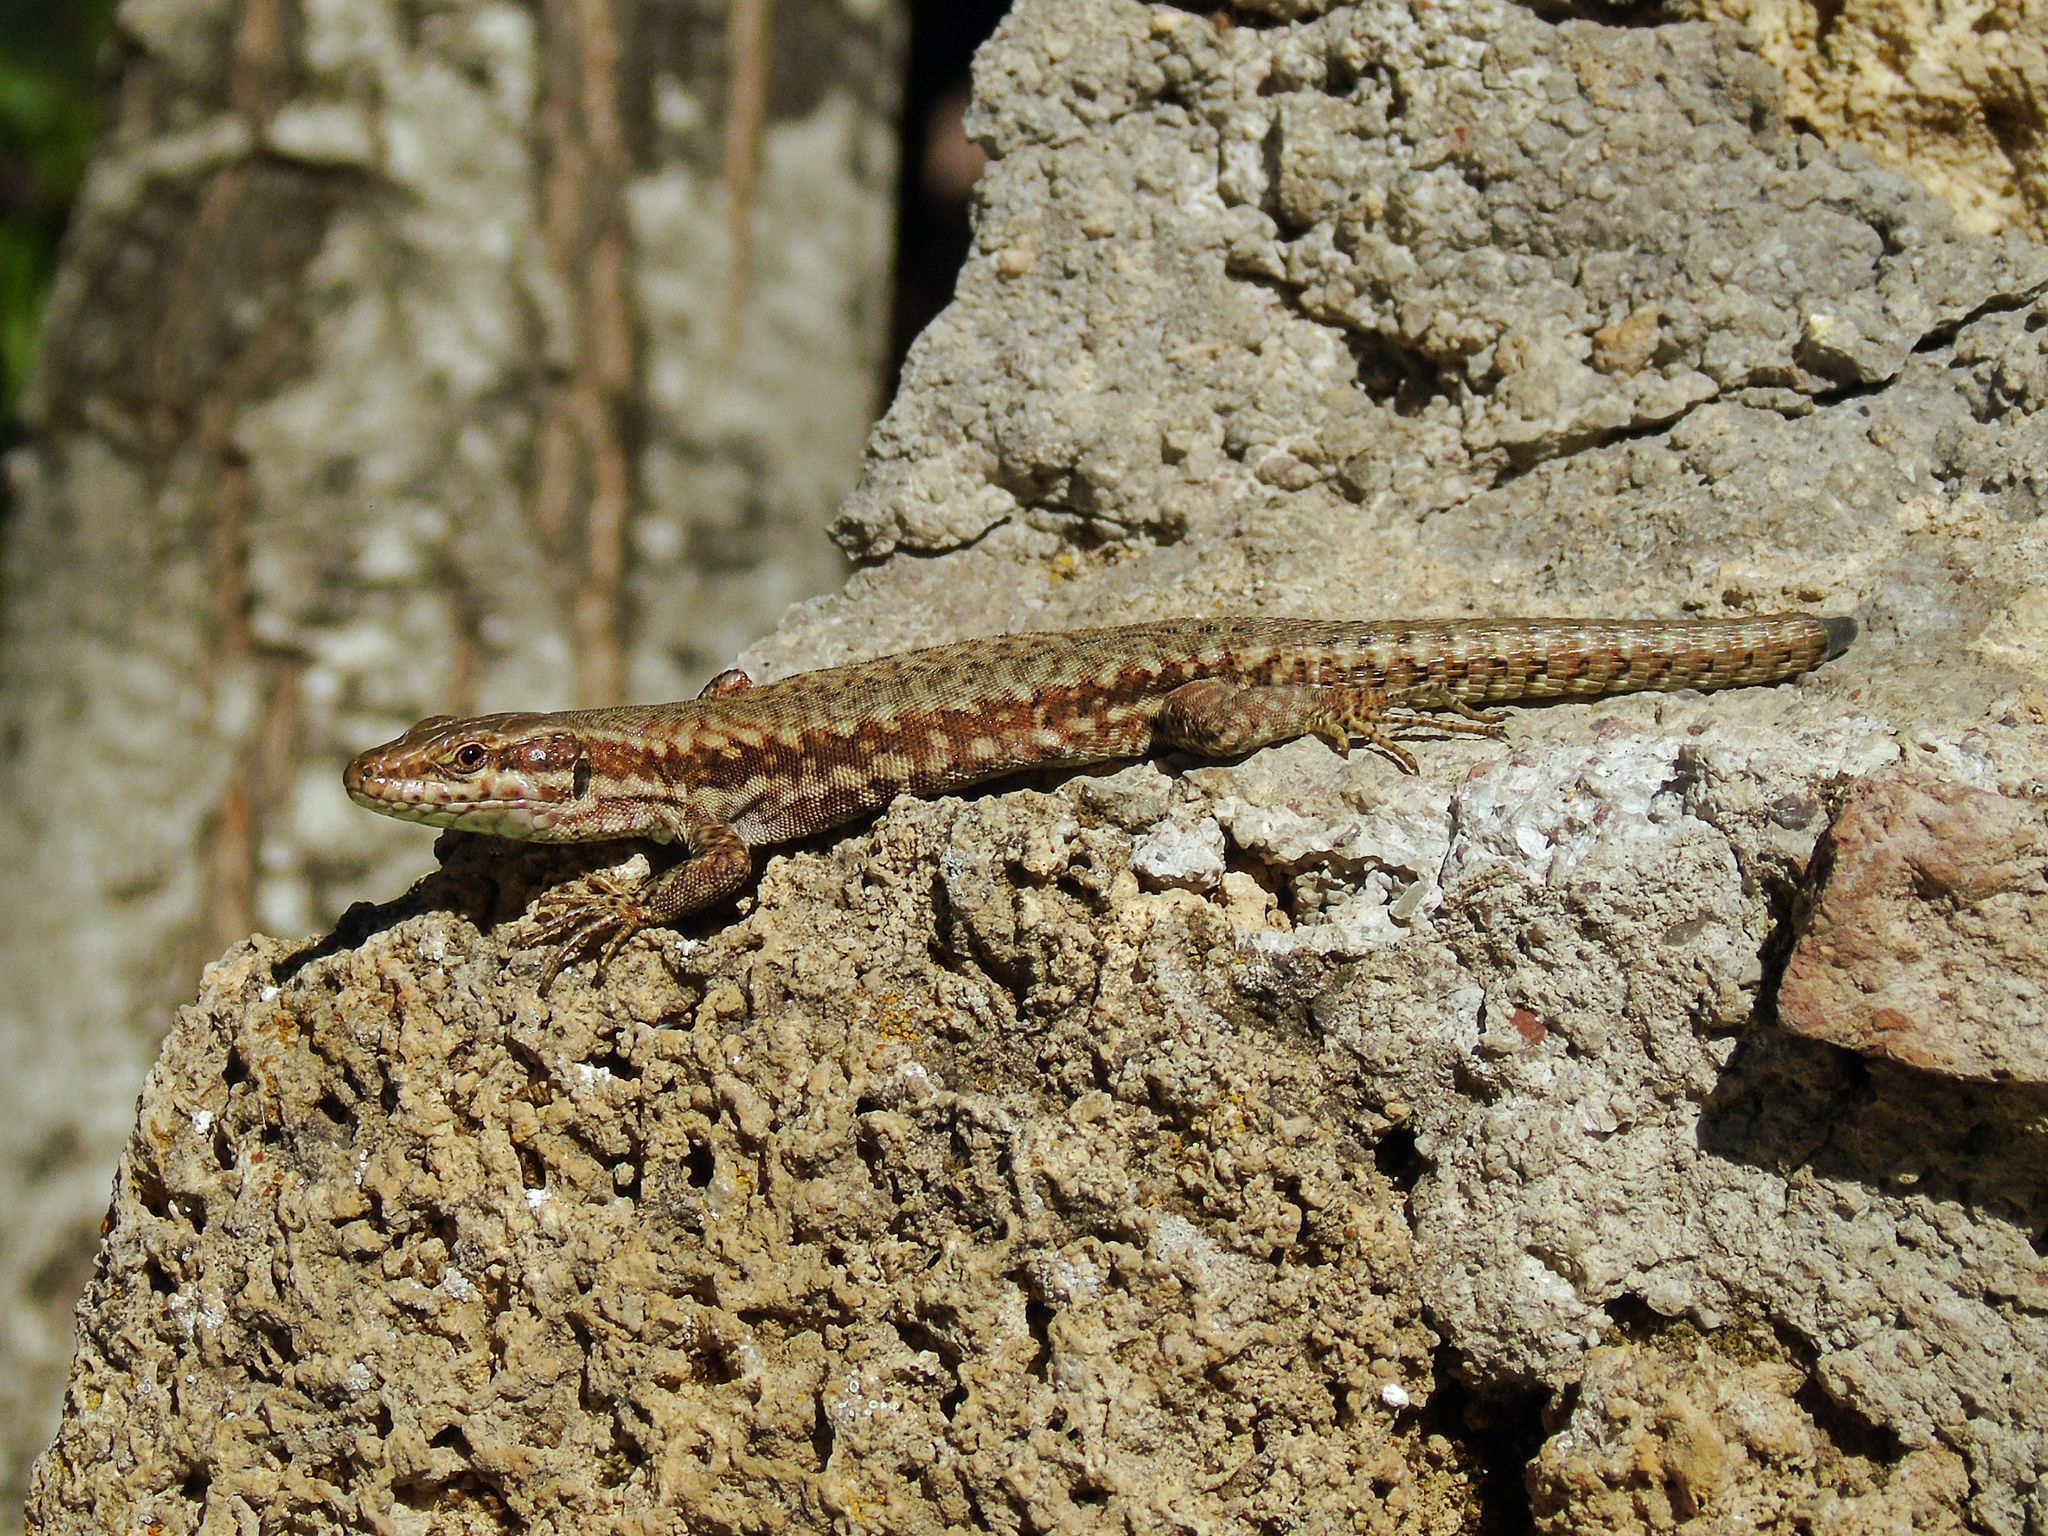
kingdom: Animalia
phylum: Chordata
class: Squamata
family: Lacertidae
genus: Podarcis
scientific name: Podarcis muralis
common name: Common wall lizard
